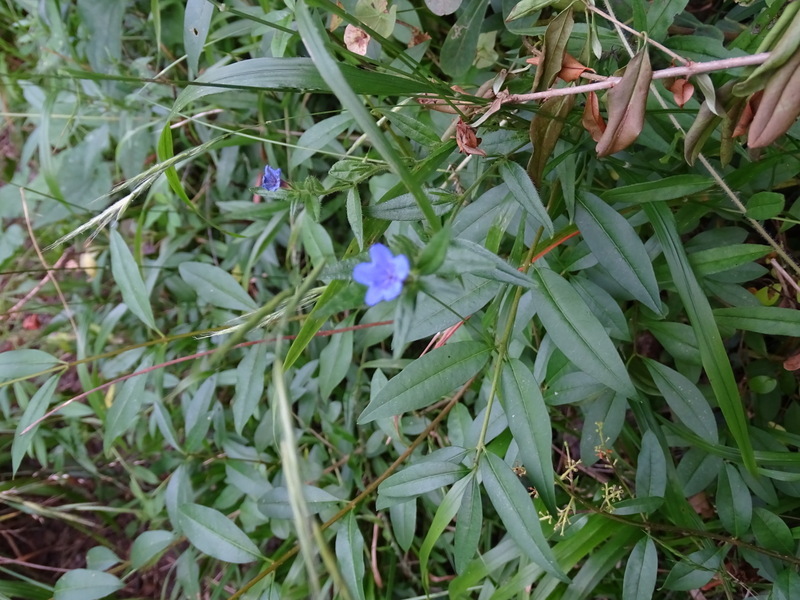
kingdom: Plantae
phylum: Tracheophyta
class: Magnoliopsida
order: Boraginales
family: Boraginaceae
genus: Aegonychon
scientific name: Aegonychon purpurocaeruleum
